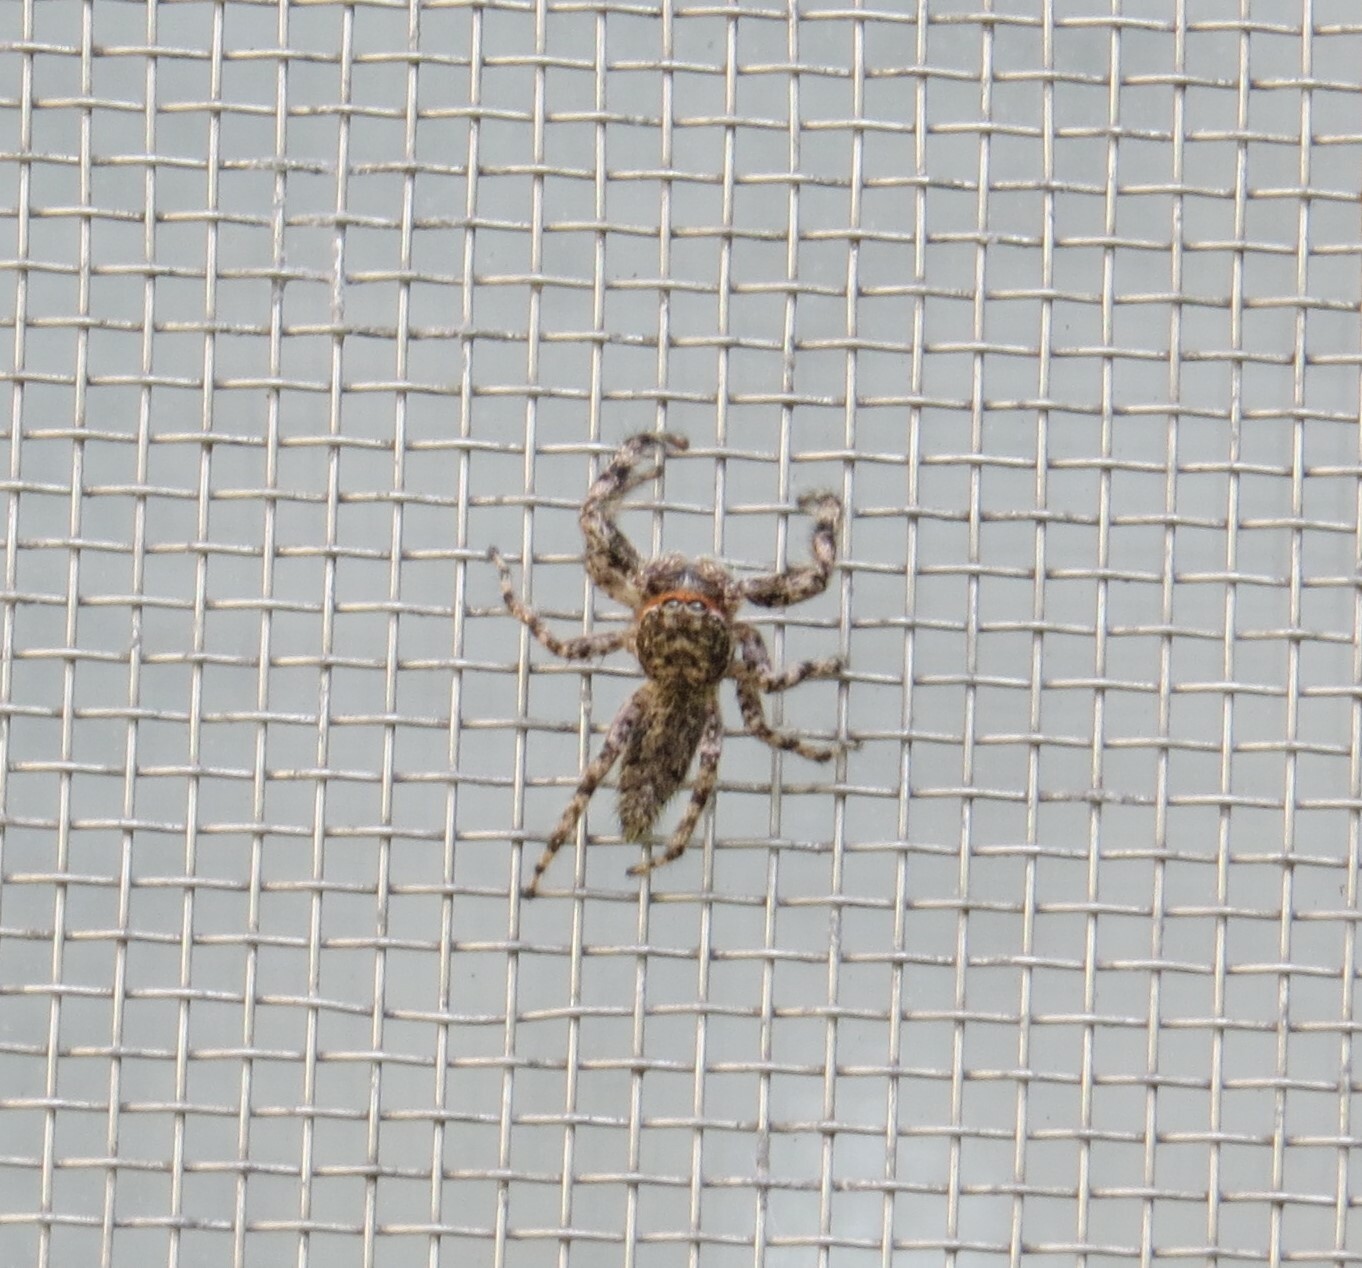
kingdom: Animalia
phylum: Arthropoda
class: Arachnida
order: Araneae
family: Salticidae
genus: Platycryptus
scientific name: Platycryptus undatus
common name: Tan jumping spider
